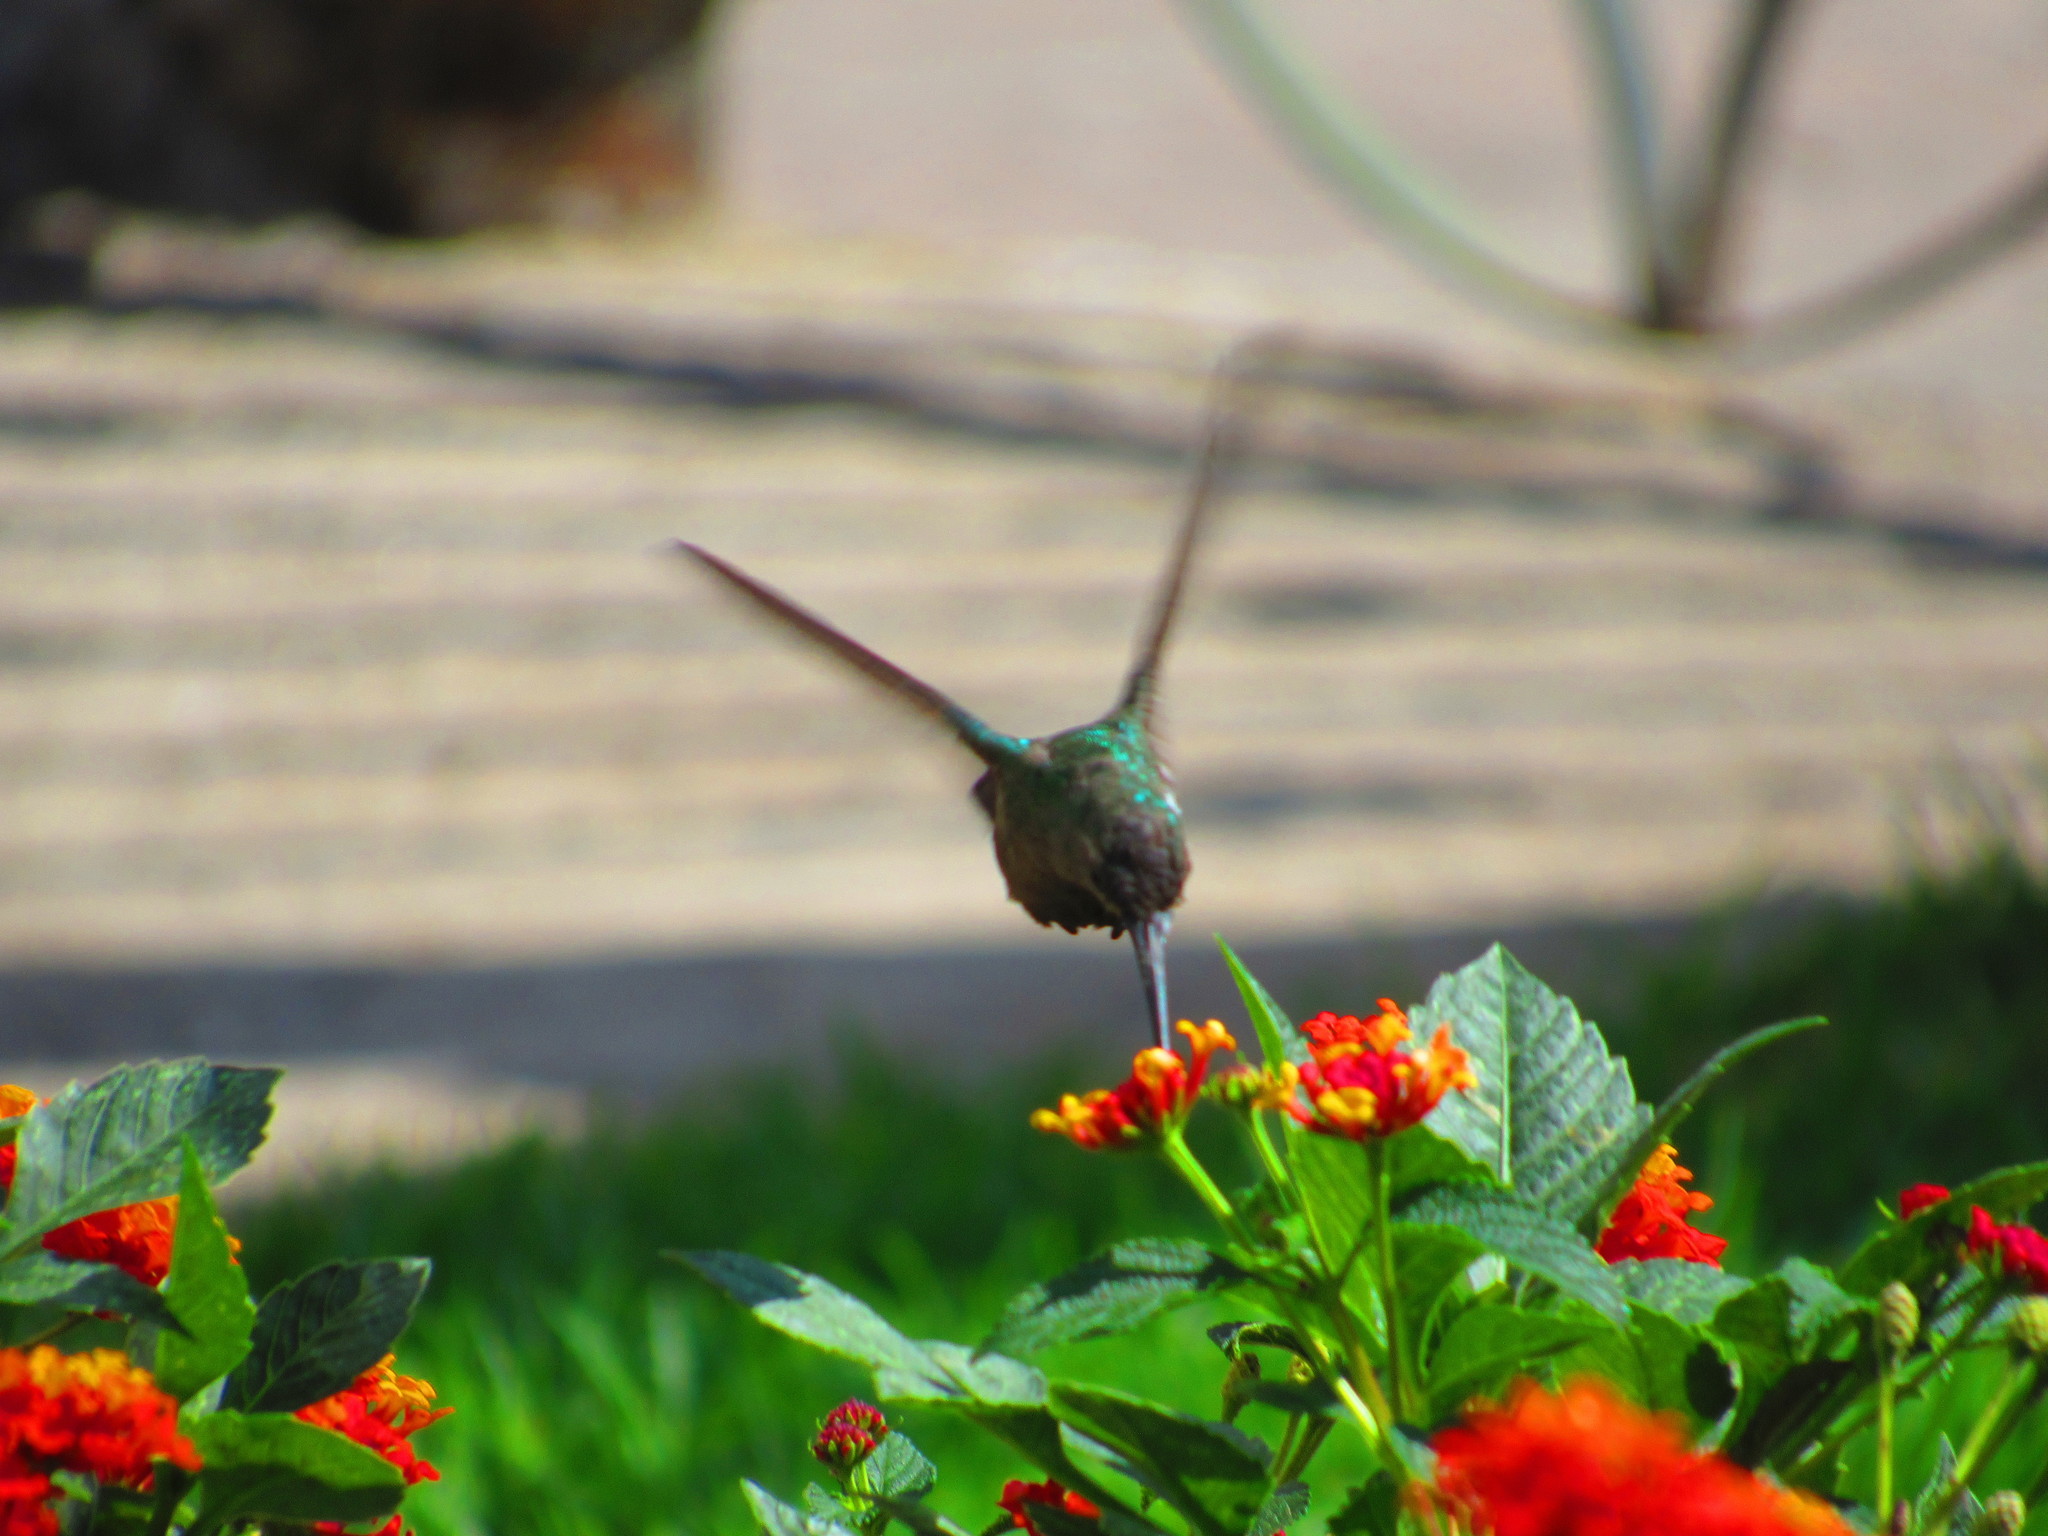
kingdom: Animalia
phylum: Chordata
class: Aves
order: Apodiformes
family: Trochilidae
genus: Cynanthus
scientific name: Cynanthus latirostris
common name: Broad-billed hummingbird
